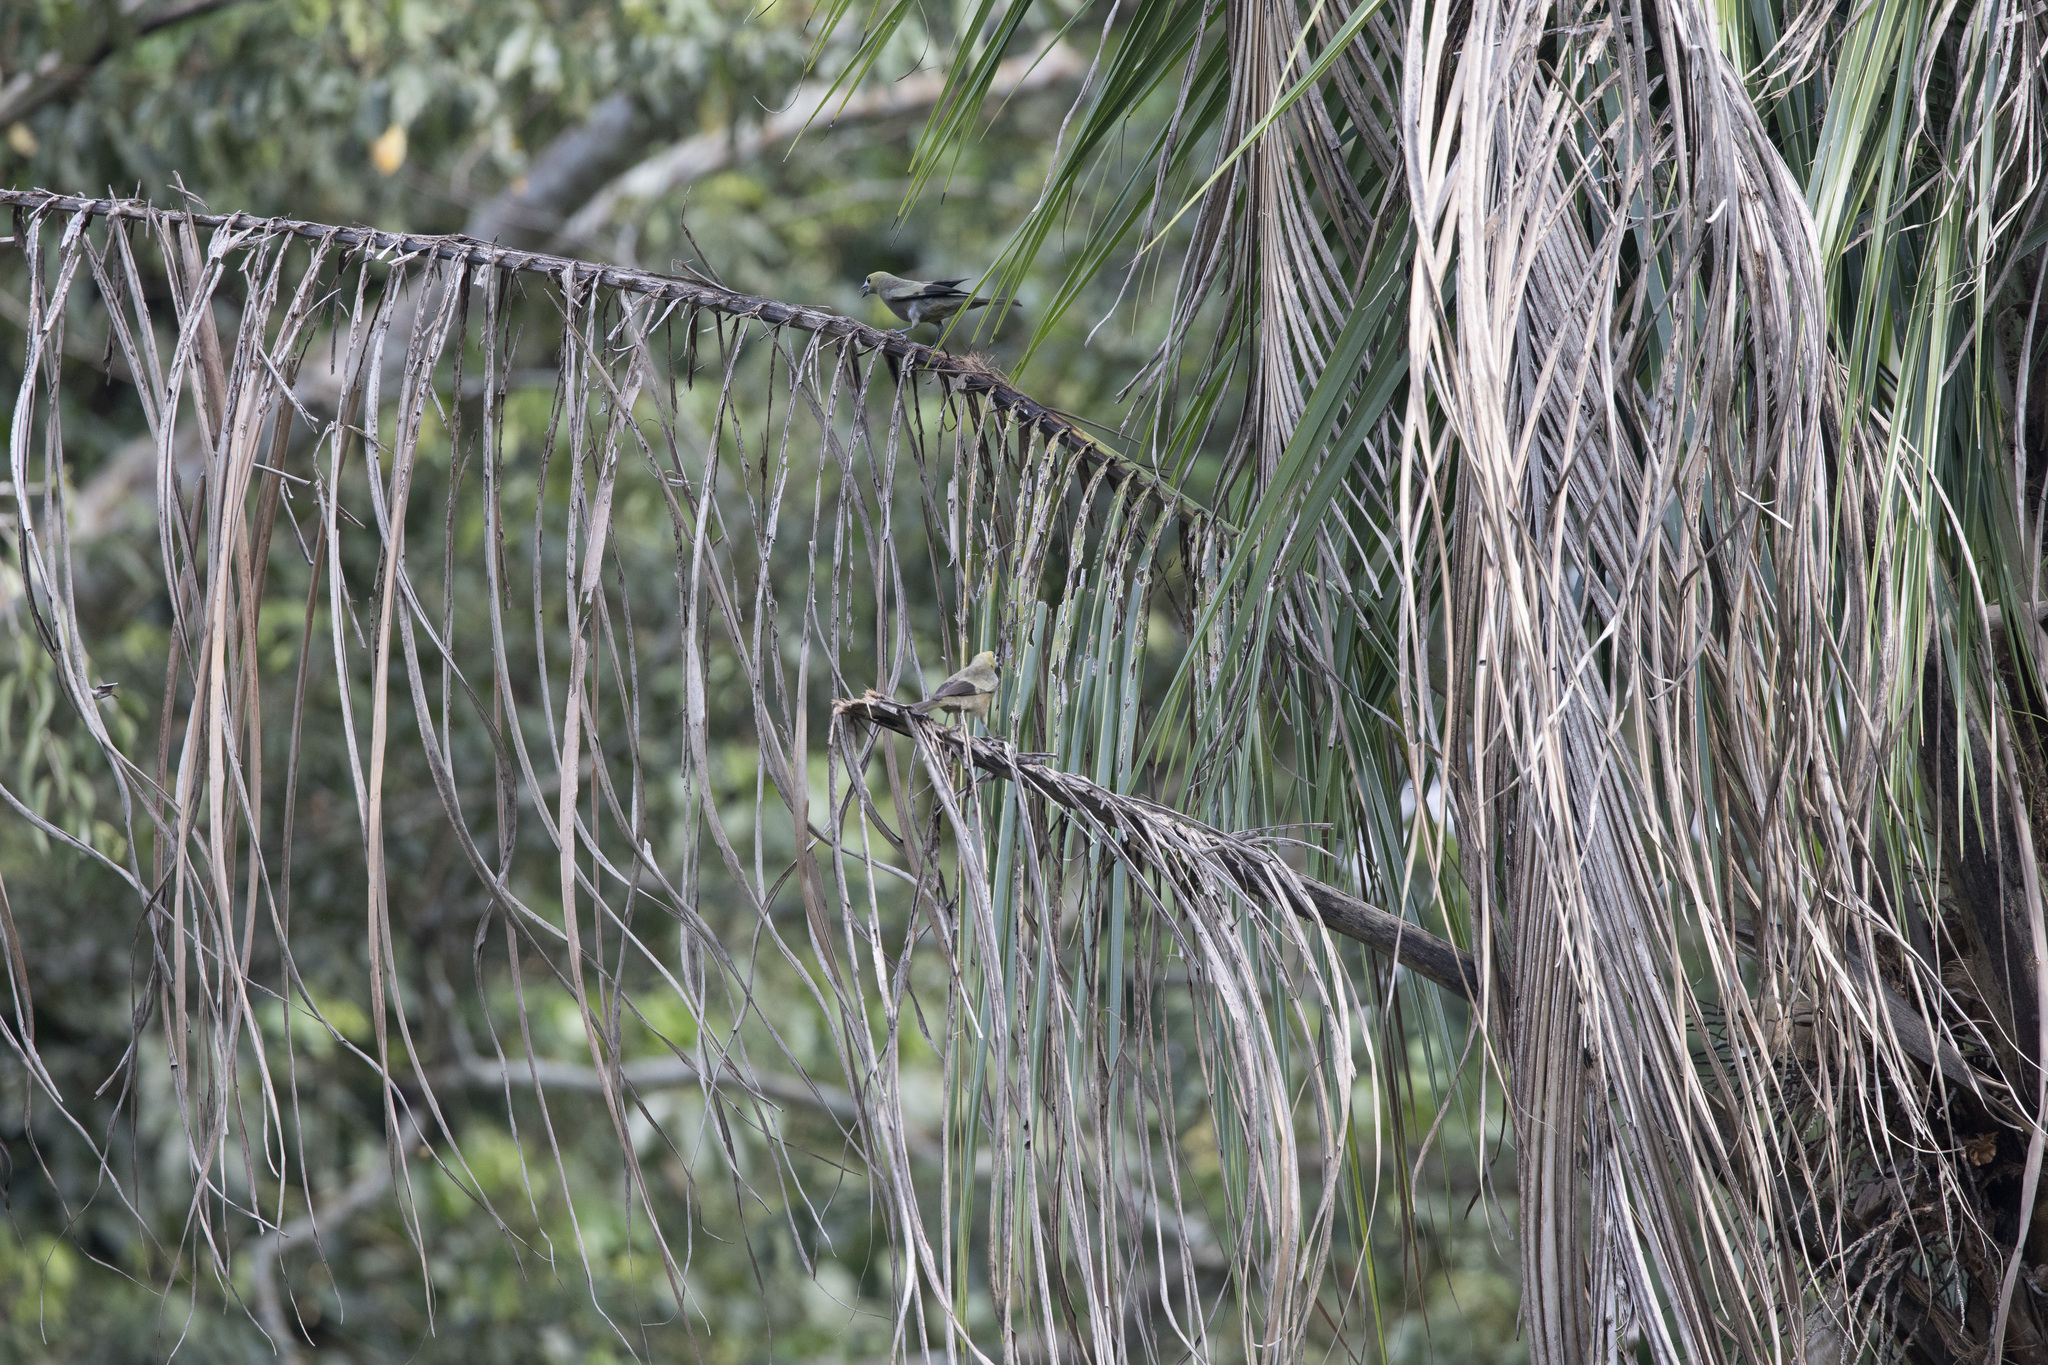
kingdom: Animalia
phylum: Chordata
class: Aves
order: Passeriformes
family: Thraupidae
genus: Thraupis
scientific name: Thraupis palmarum
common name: Palm tanager
